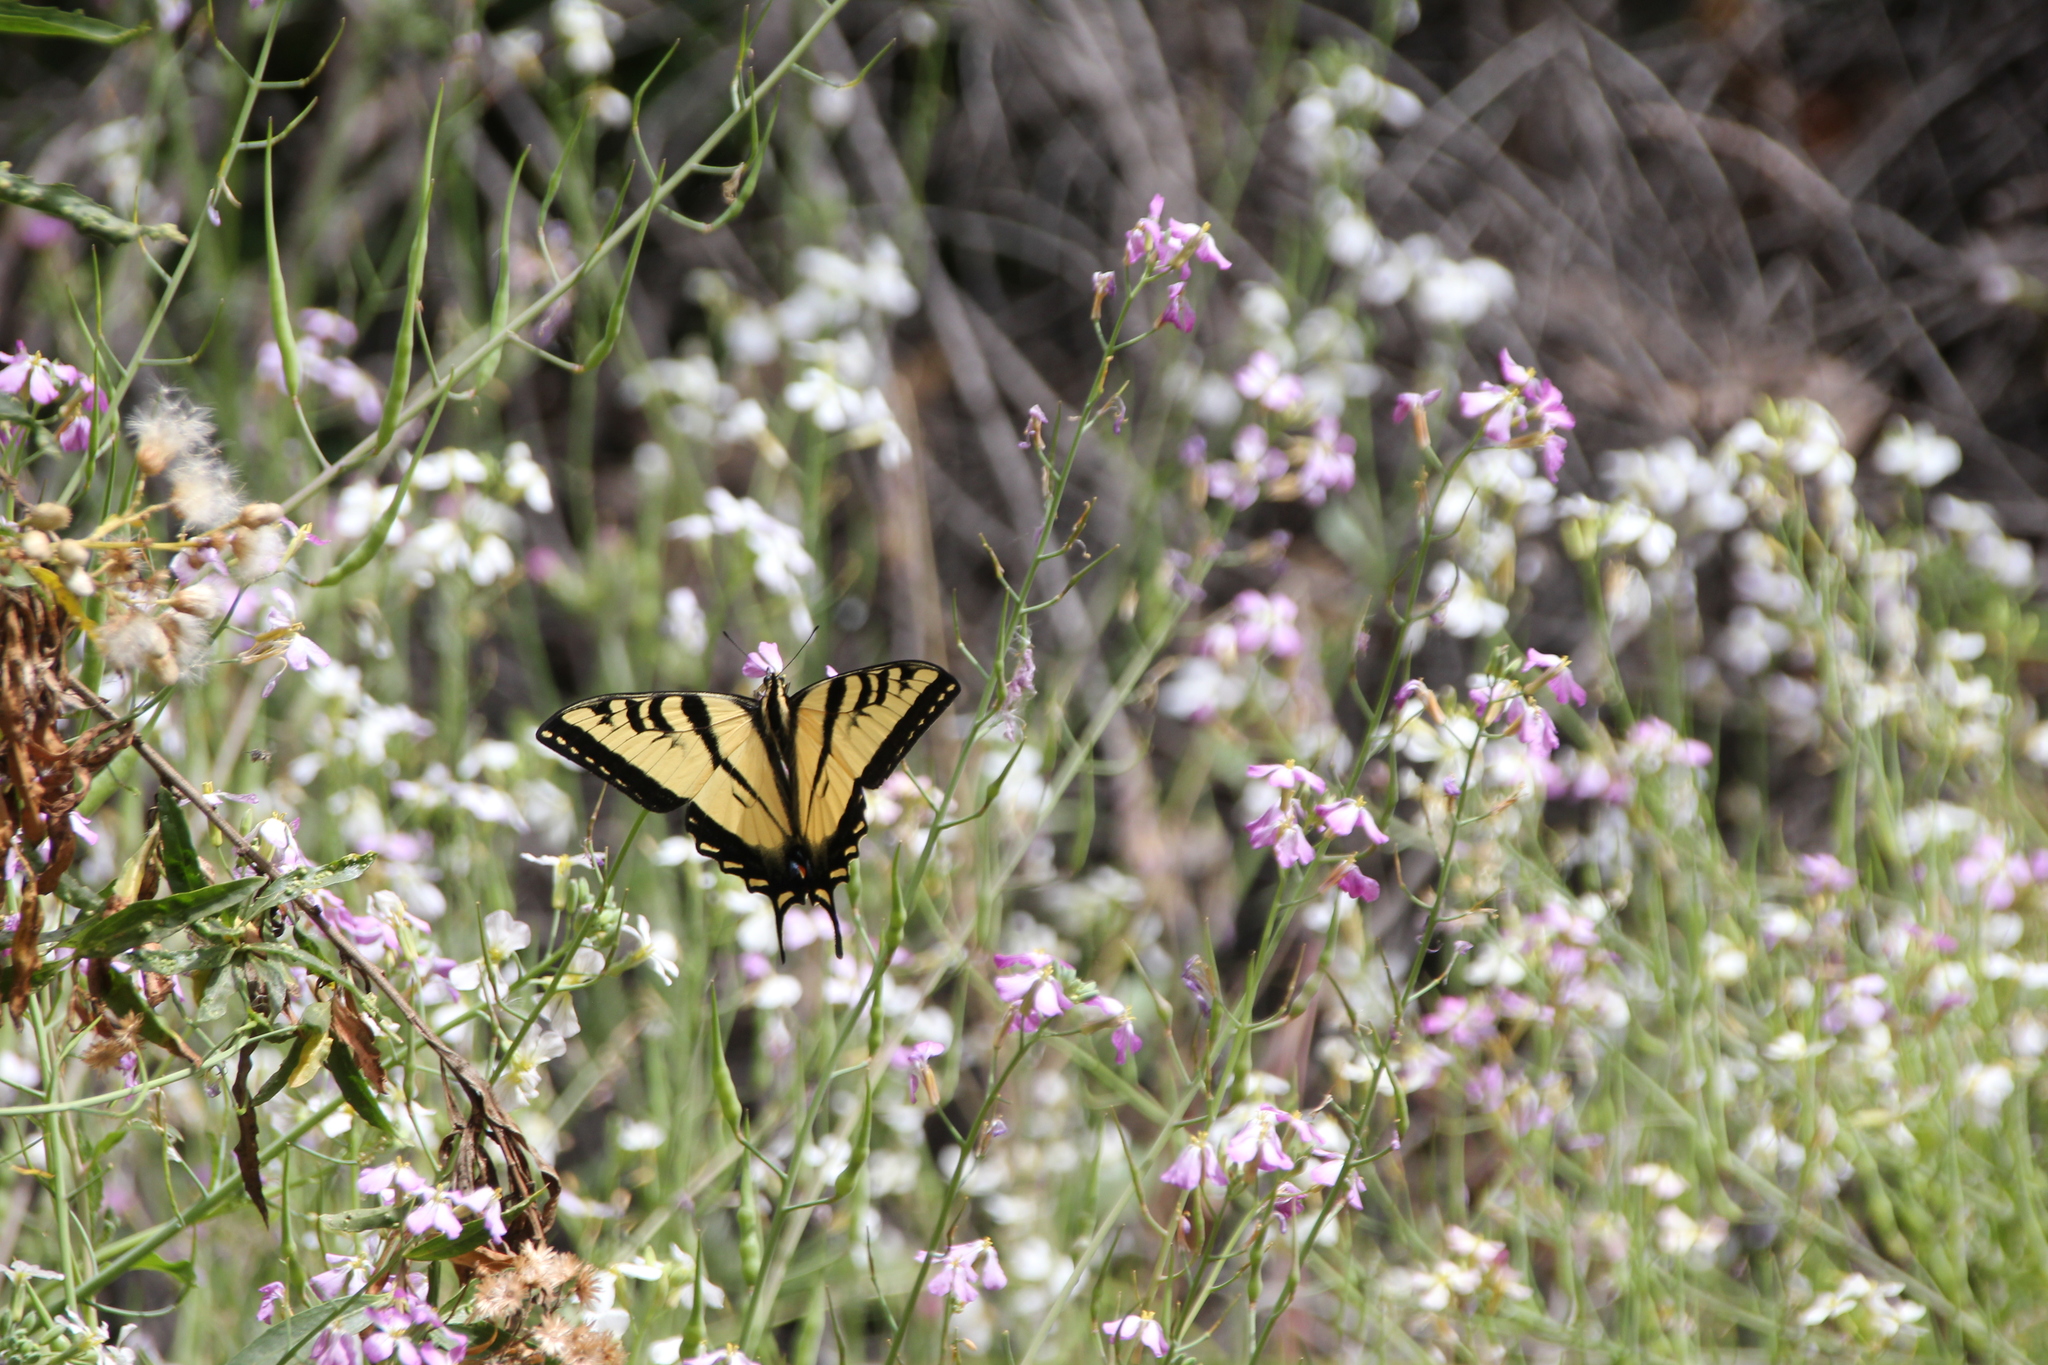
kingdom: Plantae
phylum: Tracheophyta
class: Magnoliopsida
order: Brassicales
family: Brassicaceae
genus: Raphanus
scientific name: Raphanus sativus
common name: Cultivated radish
